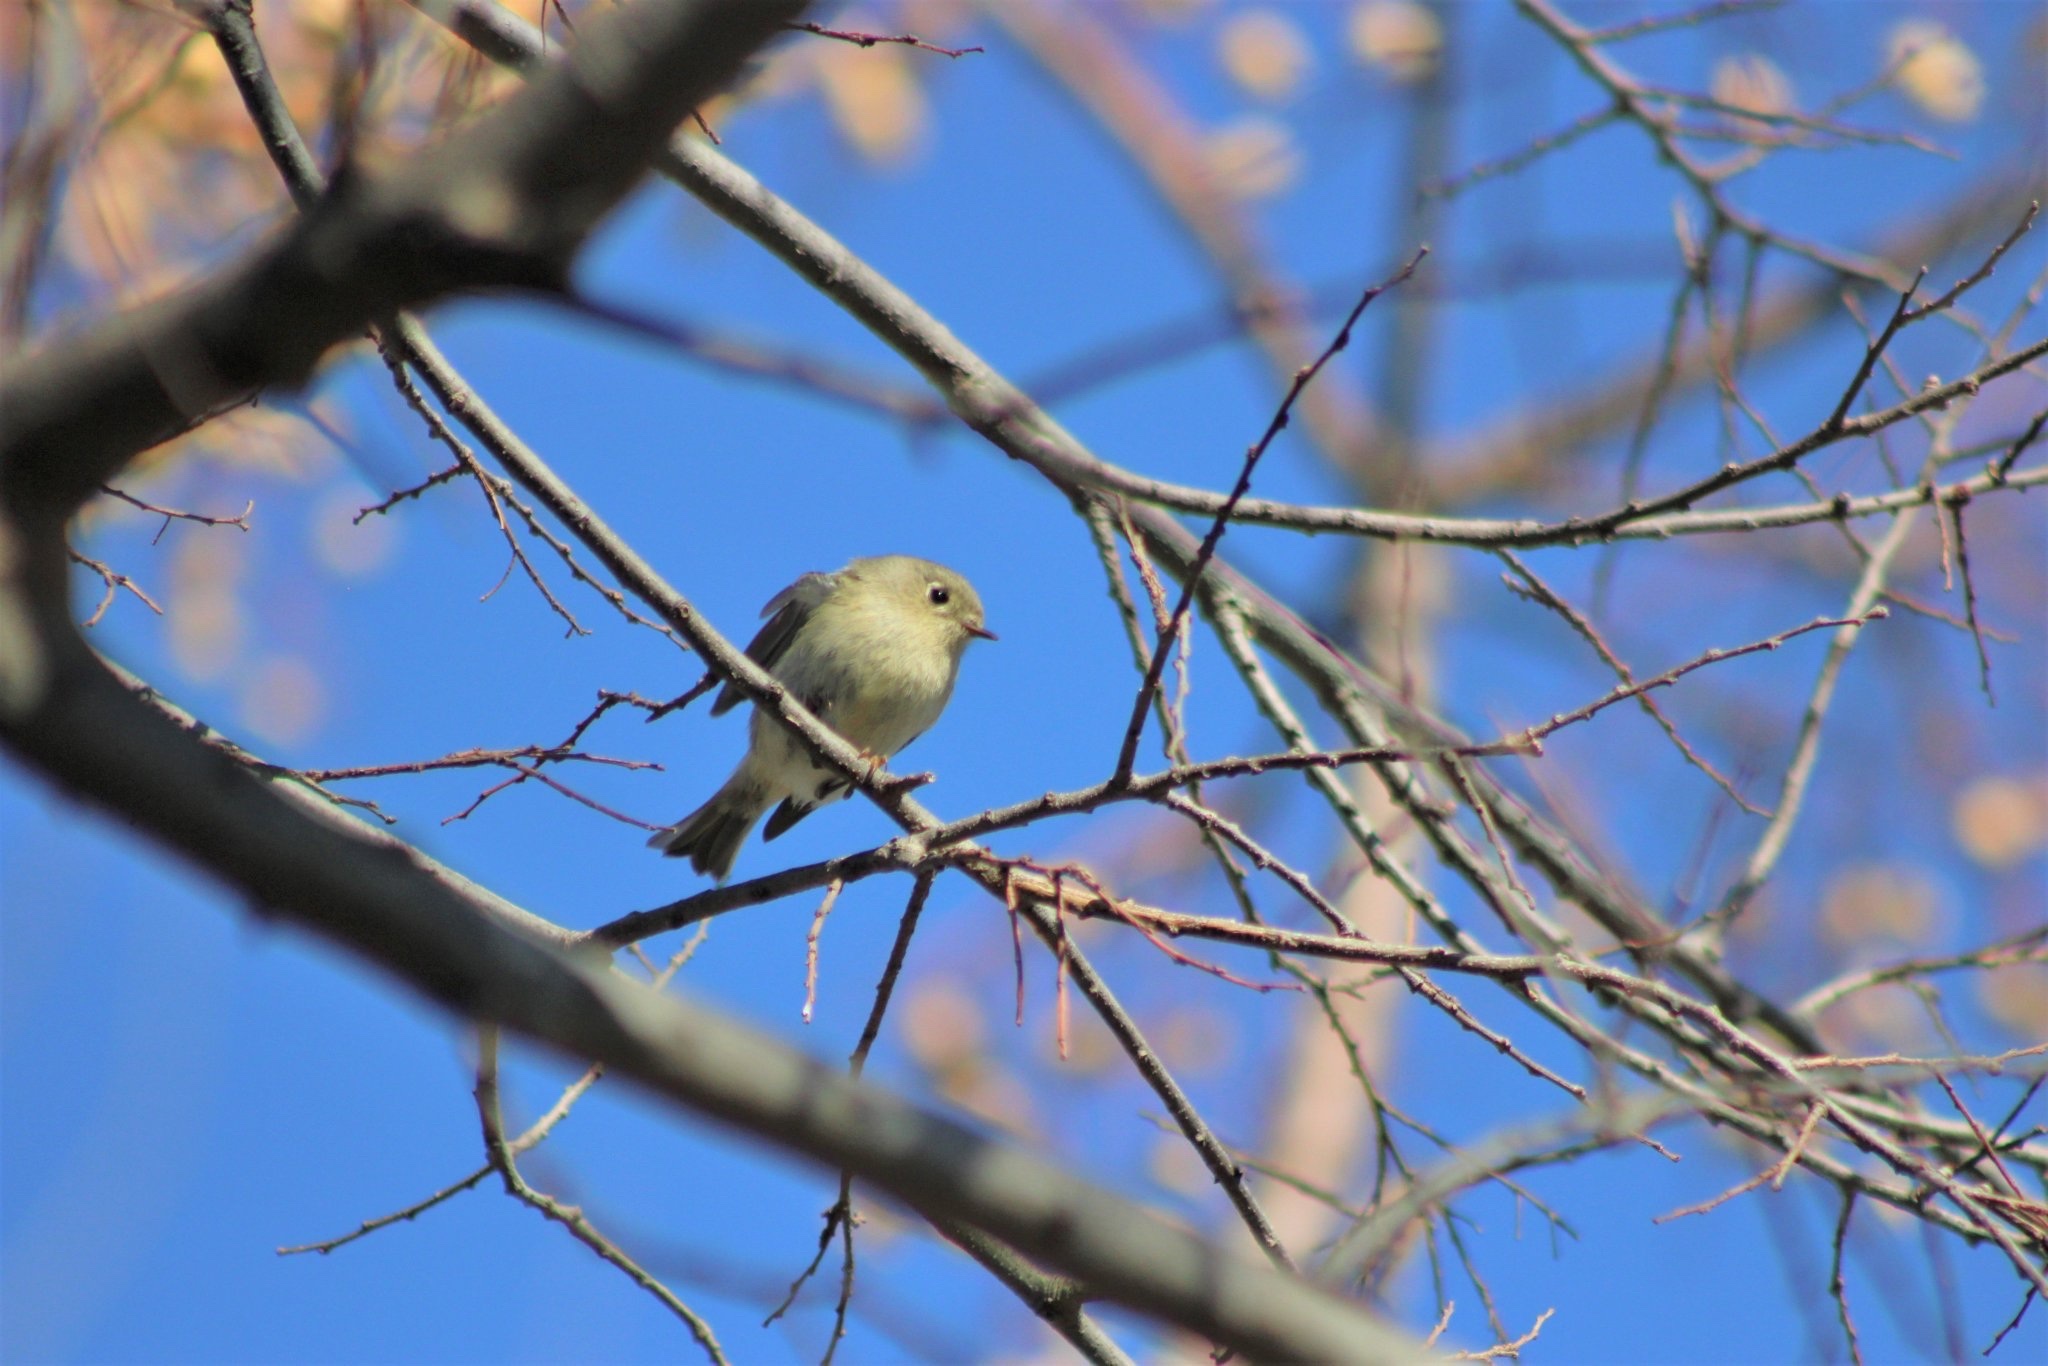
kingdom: Animalia
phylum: Chordata
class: Aves
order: Passeriformes
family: Regulidae
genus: Regulus
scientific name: Regulus calendula
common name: Ruby-crowned kinglet
